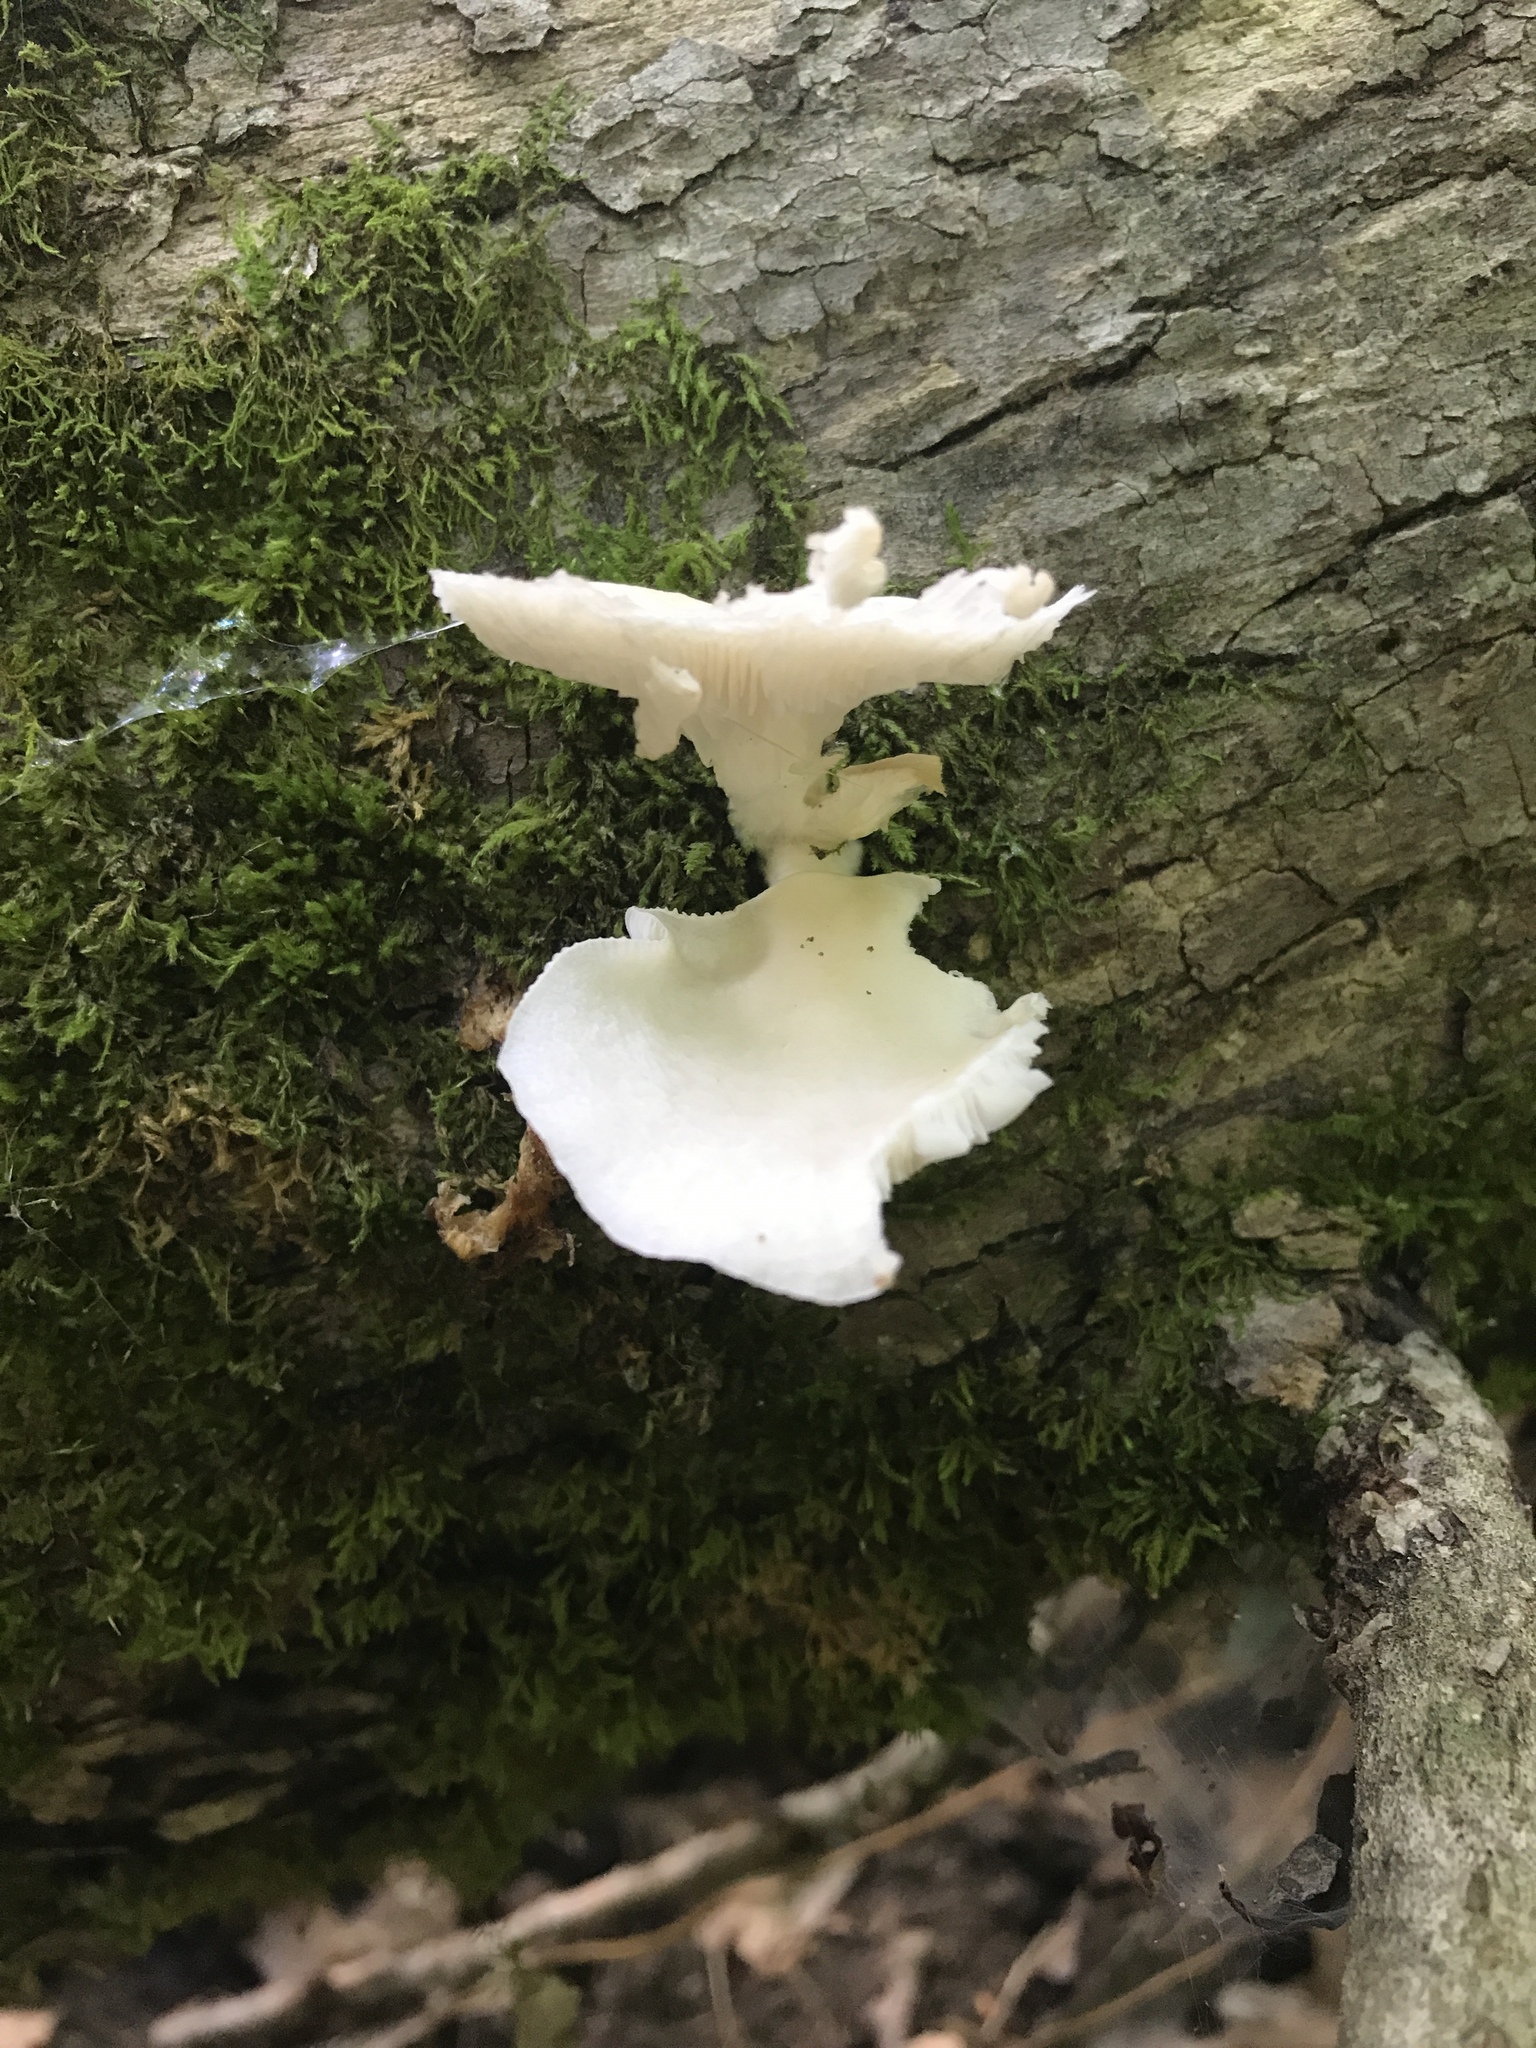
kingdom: Fungi
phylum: Basidiomycota
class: Agaricomycetes
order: Agaricales
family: Pleurotaceae
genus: Pleurotus
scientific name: Pleurotus pulmonarius
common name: Pale oyster
